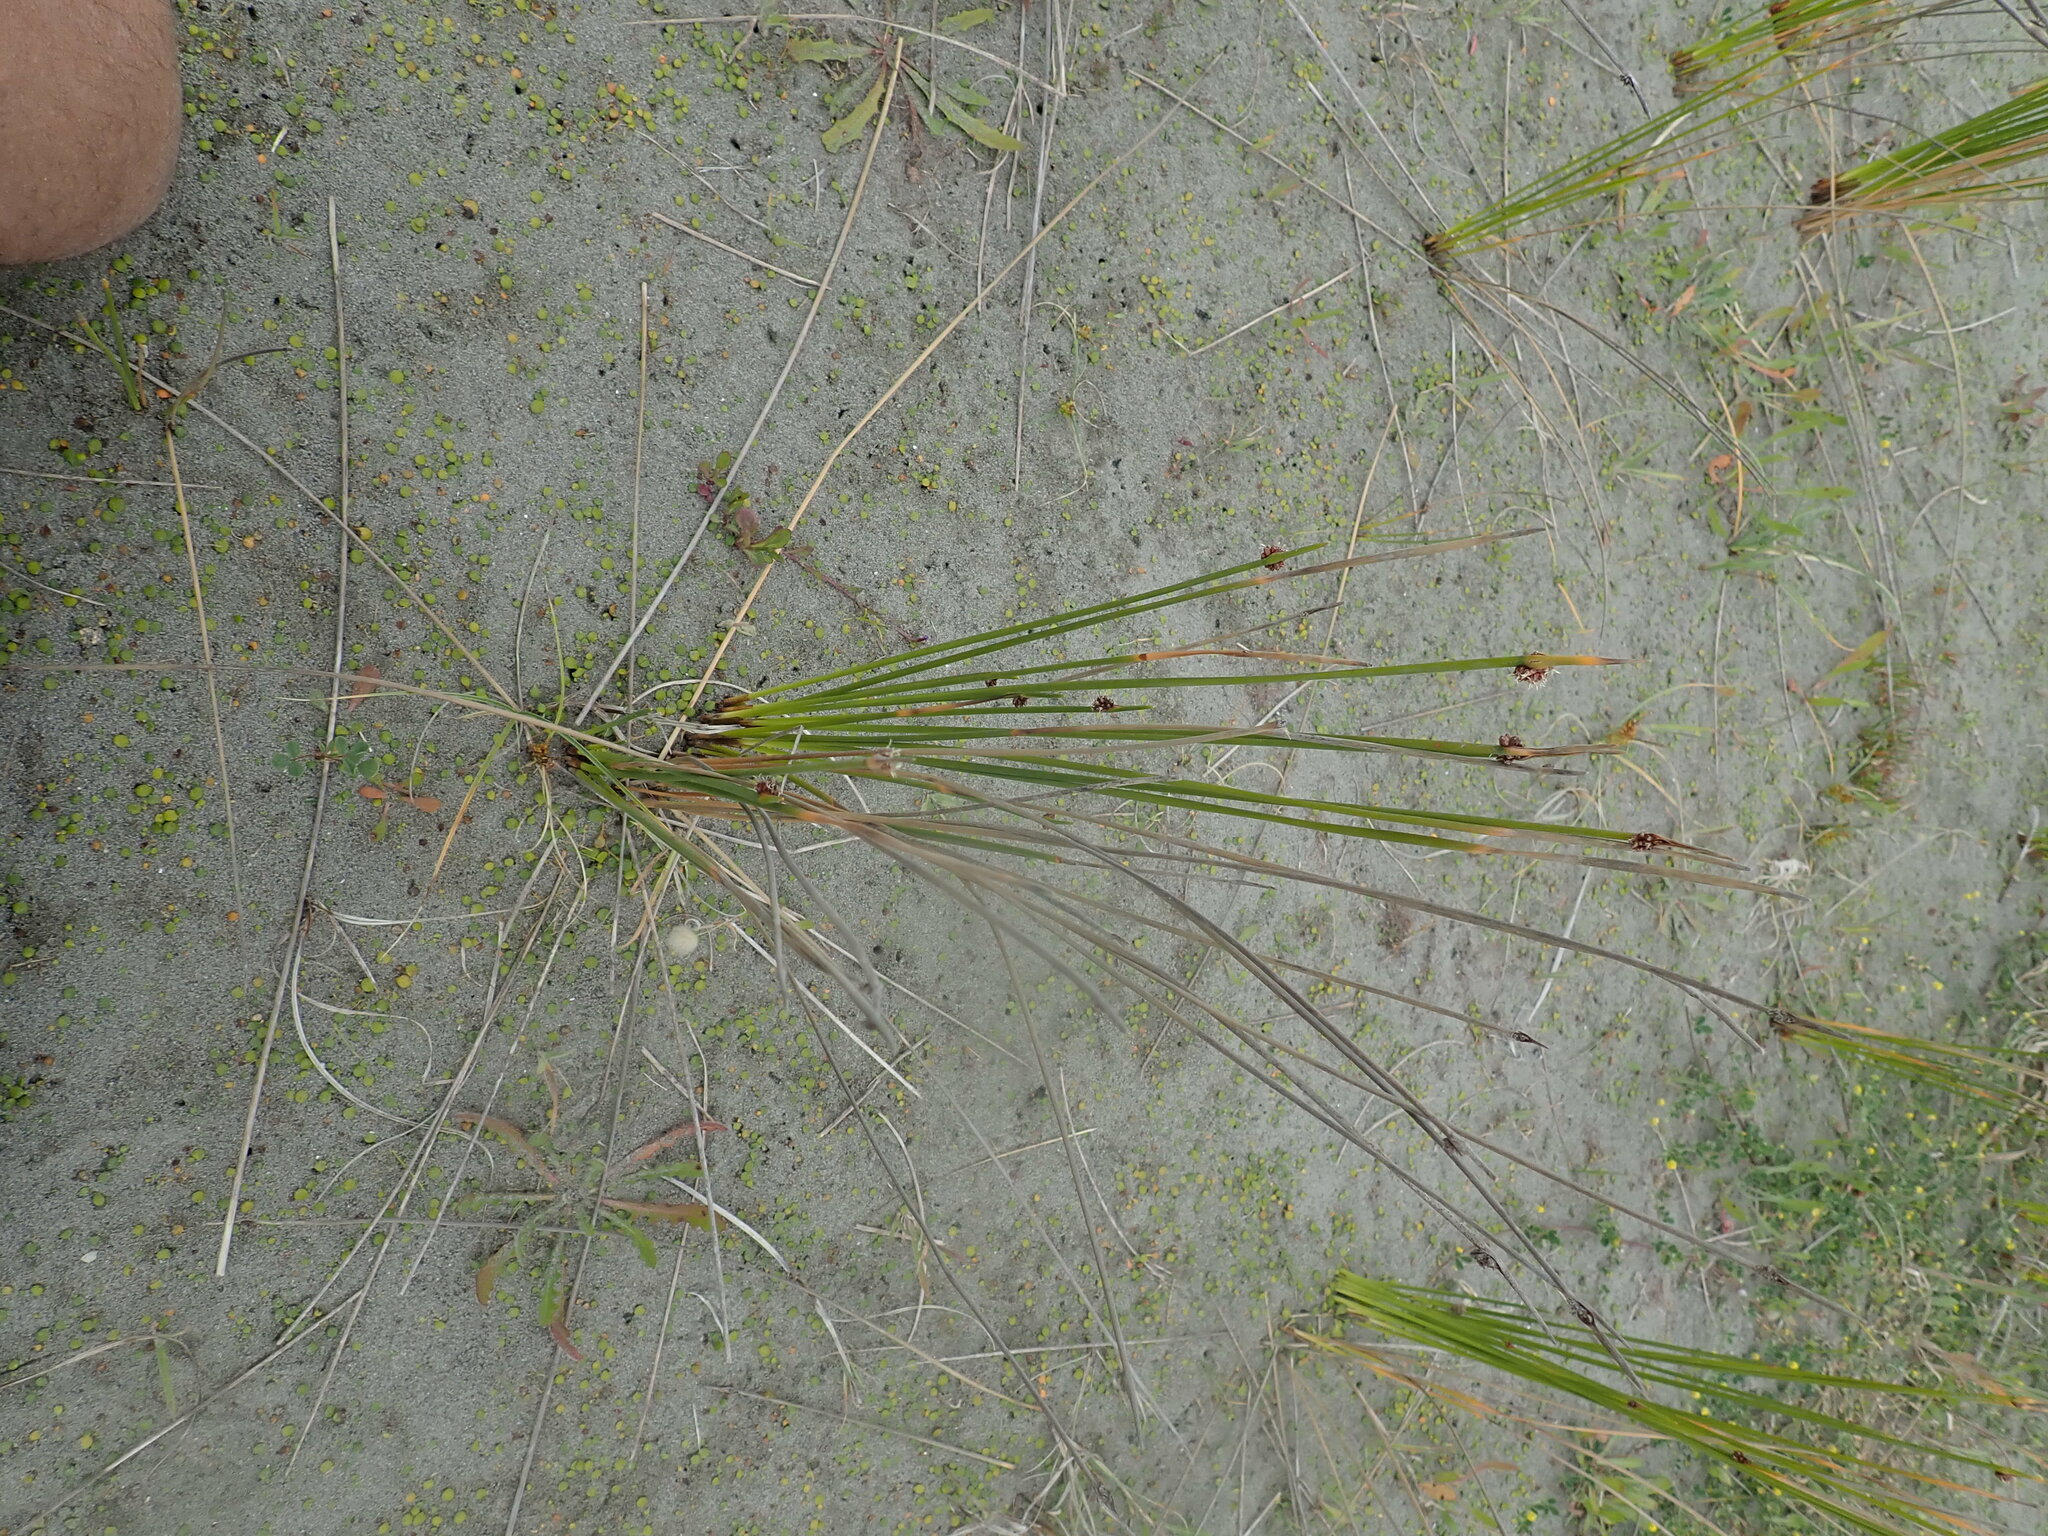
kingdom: Plantae
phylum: Tracheophyta
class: Liliopsida
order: Poales
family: Cyperaceae
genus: Ficinia
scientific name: Ficinia nodosa
